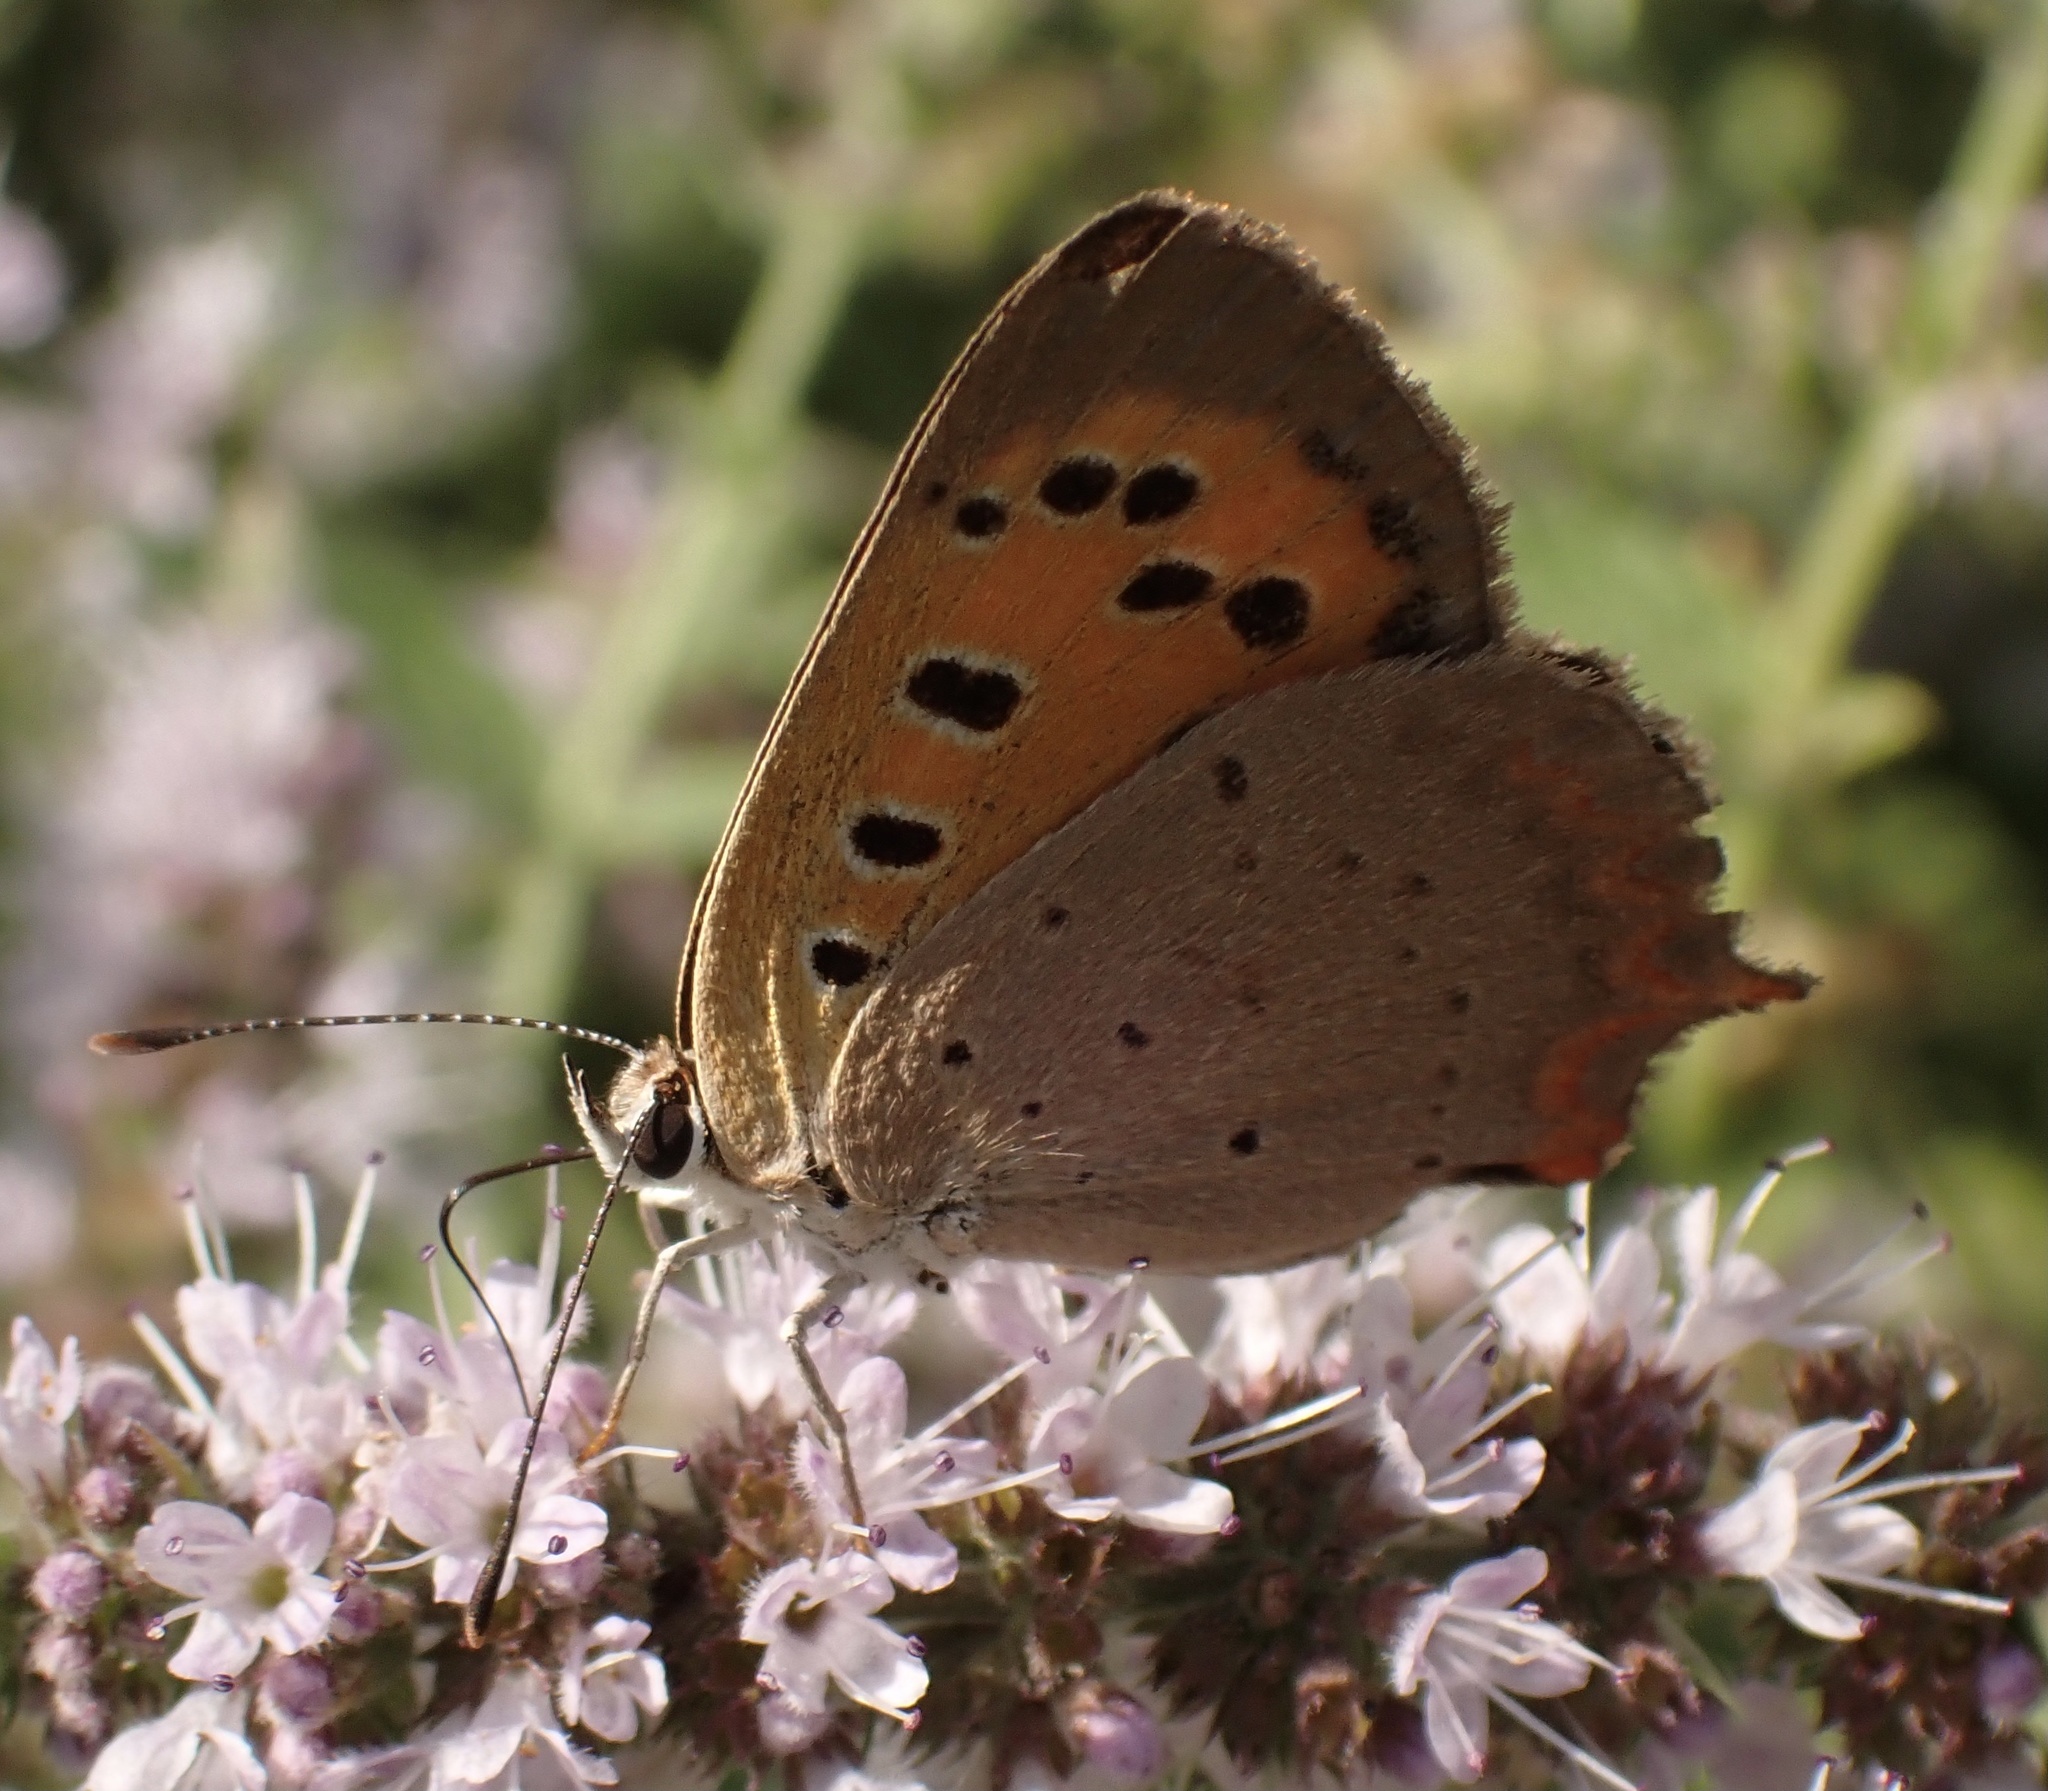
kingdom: Animalia
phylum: Arthropoda
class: Insecta
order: Lepidoptera
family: Lycaenidae
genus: Lycaena
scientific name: Lycaena phlaeas
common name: Small copper
